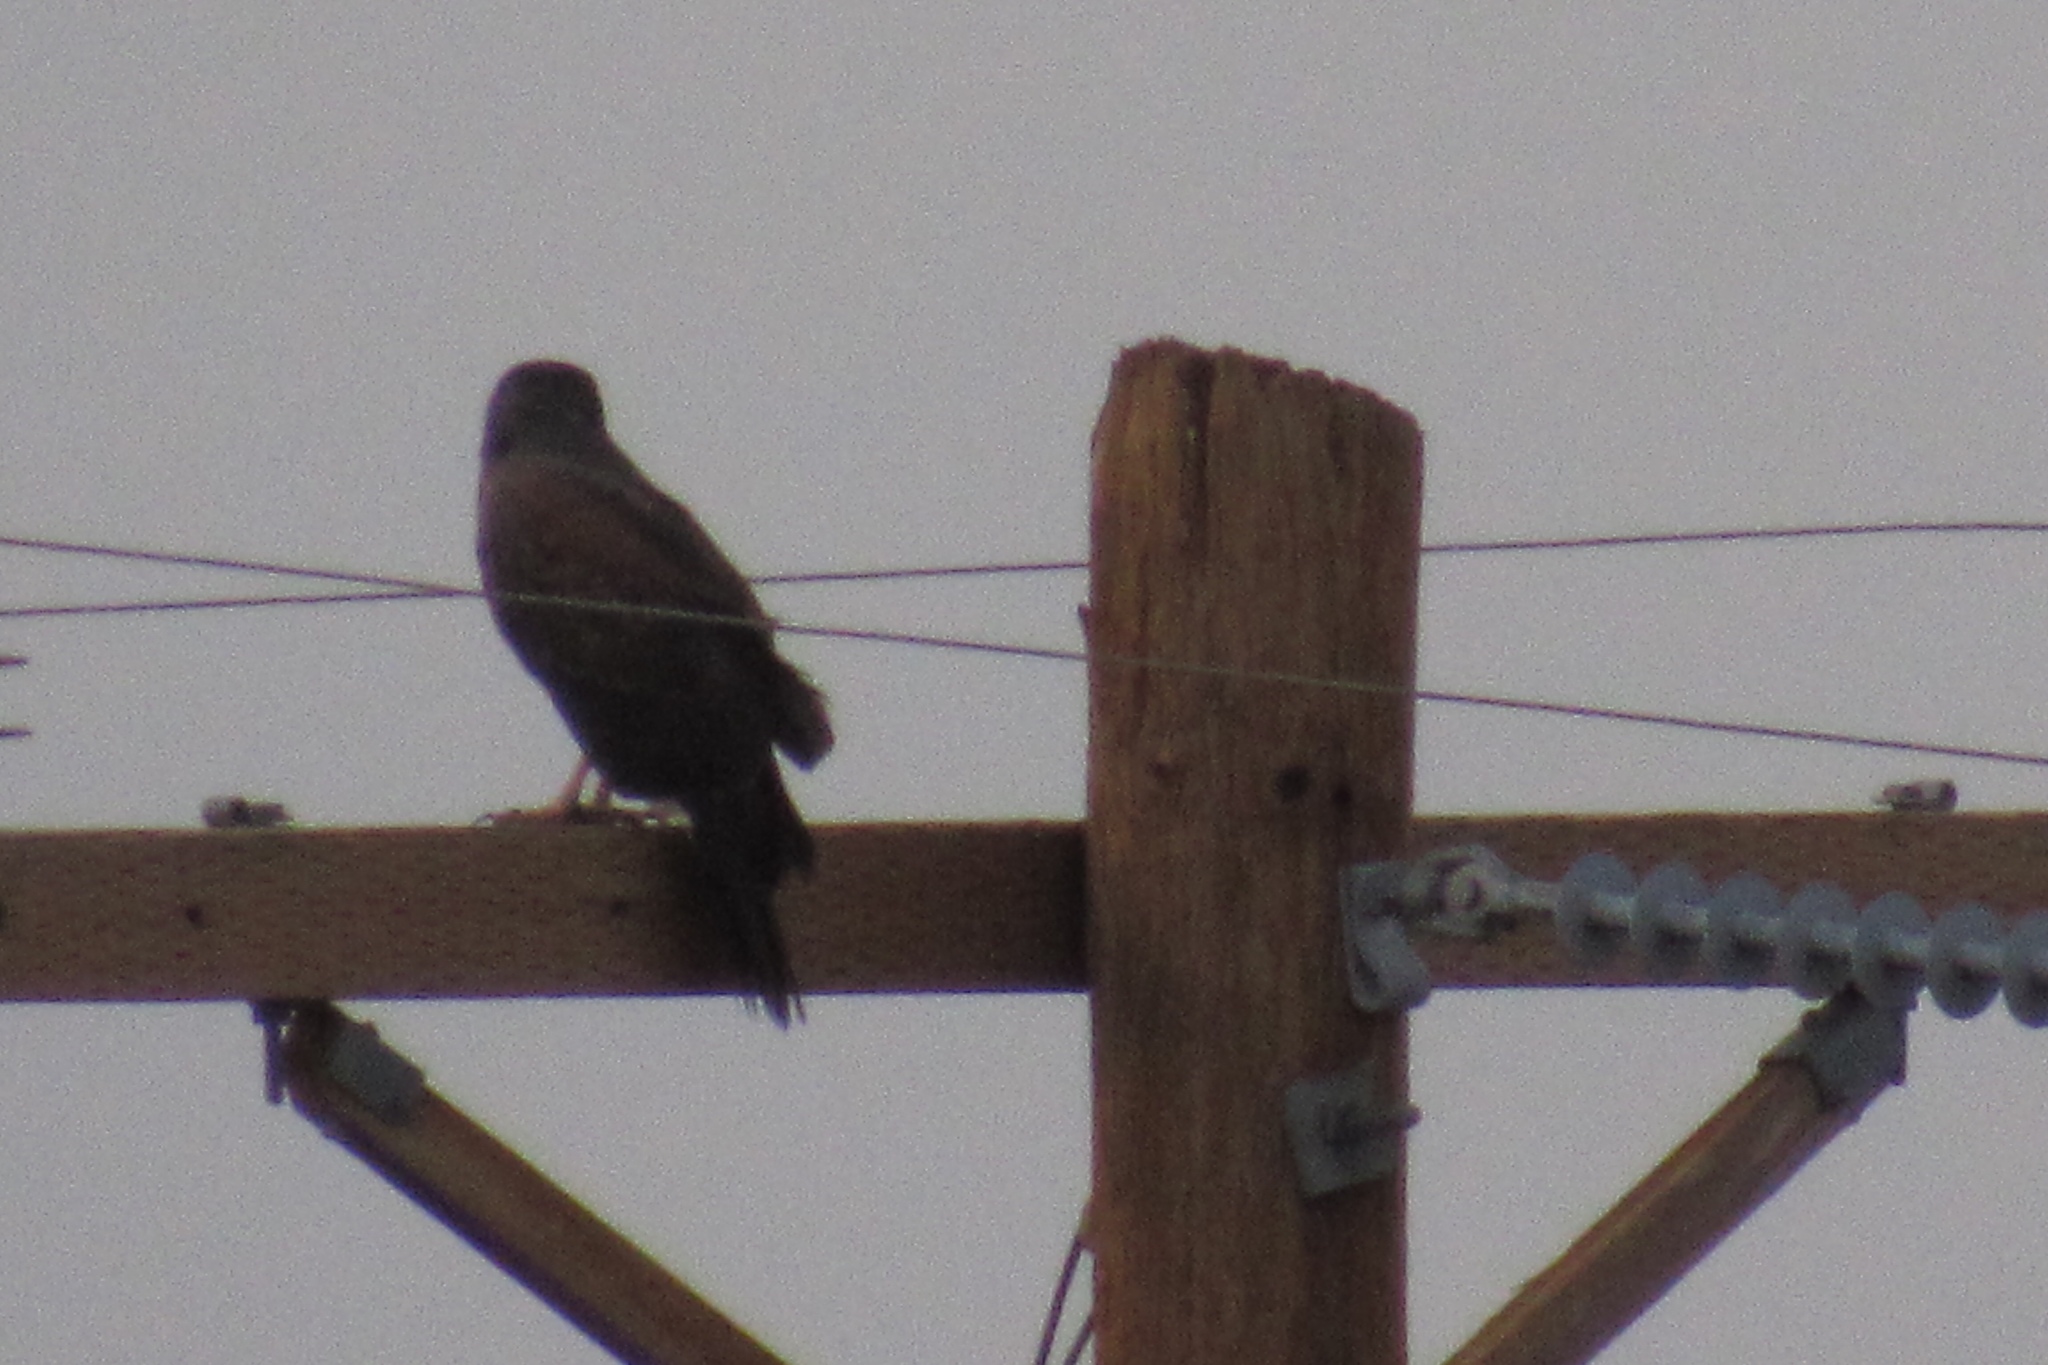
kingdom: Animalia
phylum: Chordata
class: Aves
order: Accipitriformes
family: Accipitridae
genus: Parabuteo
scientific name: Parabuteo unicinctus
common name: Harris's hawk
